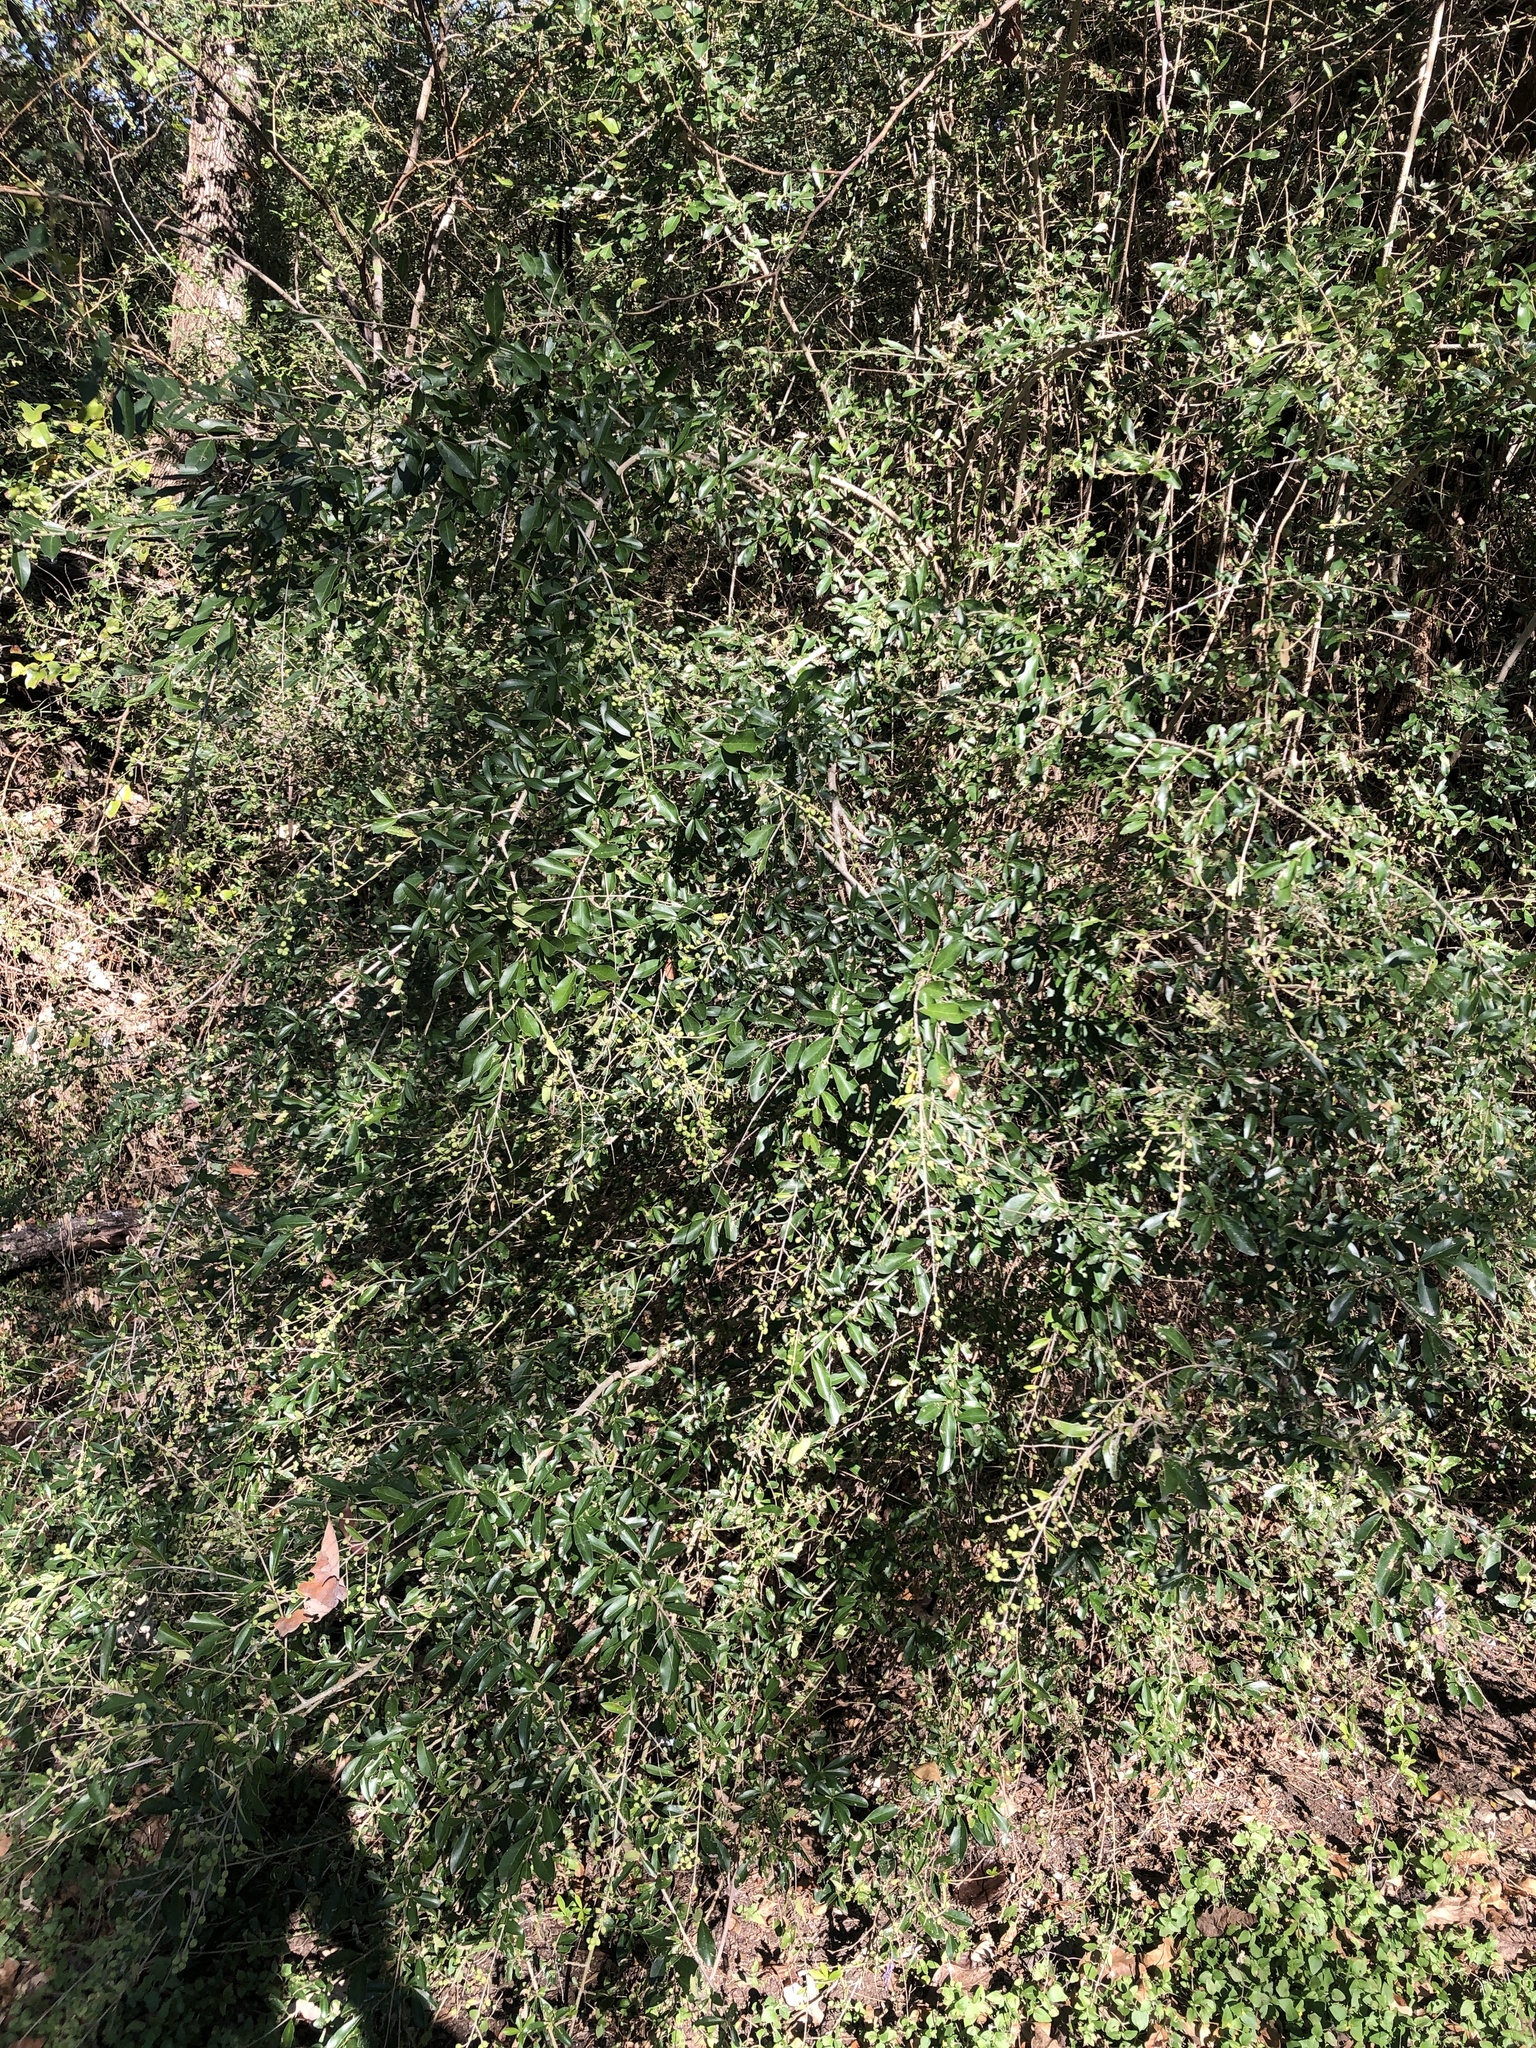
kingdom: Plantae
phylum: Tracheophyta
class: Magnoliopsida
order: Lamiales
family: Oleaceae
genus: Ligustrum
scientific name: Ligustrum quihoui
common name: Waxyleaf privet
